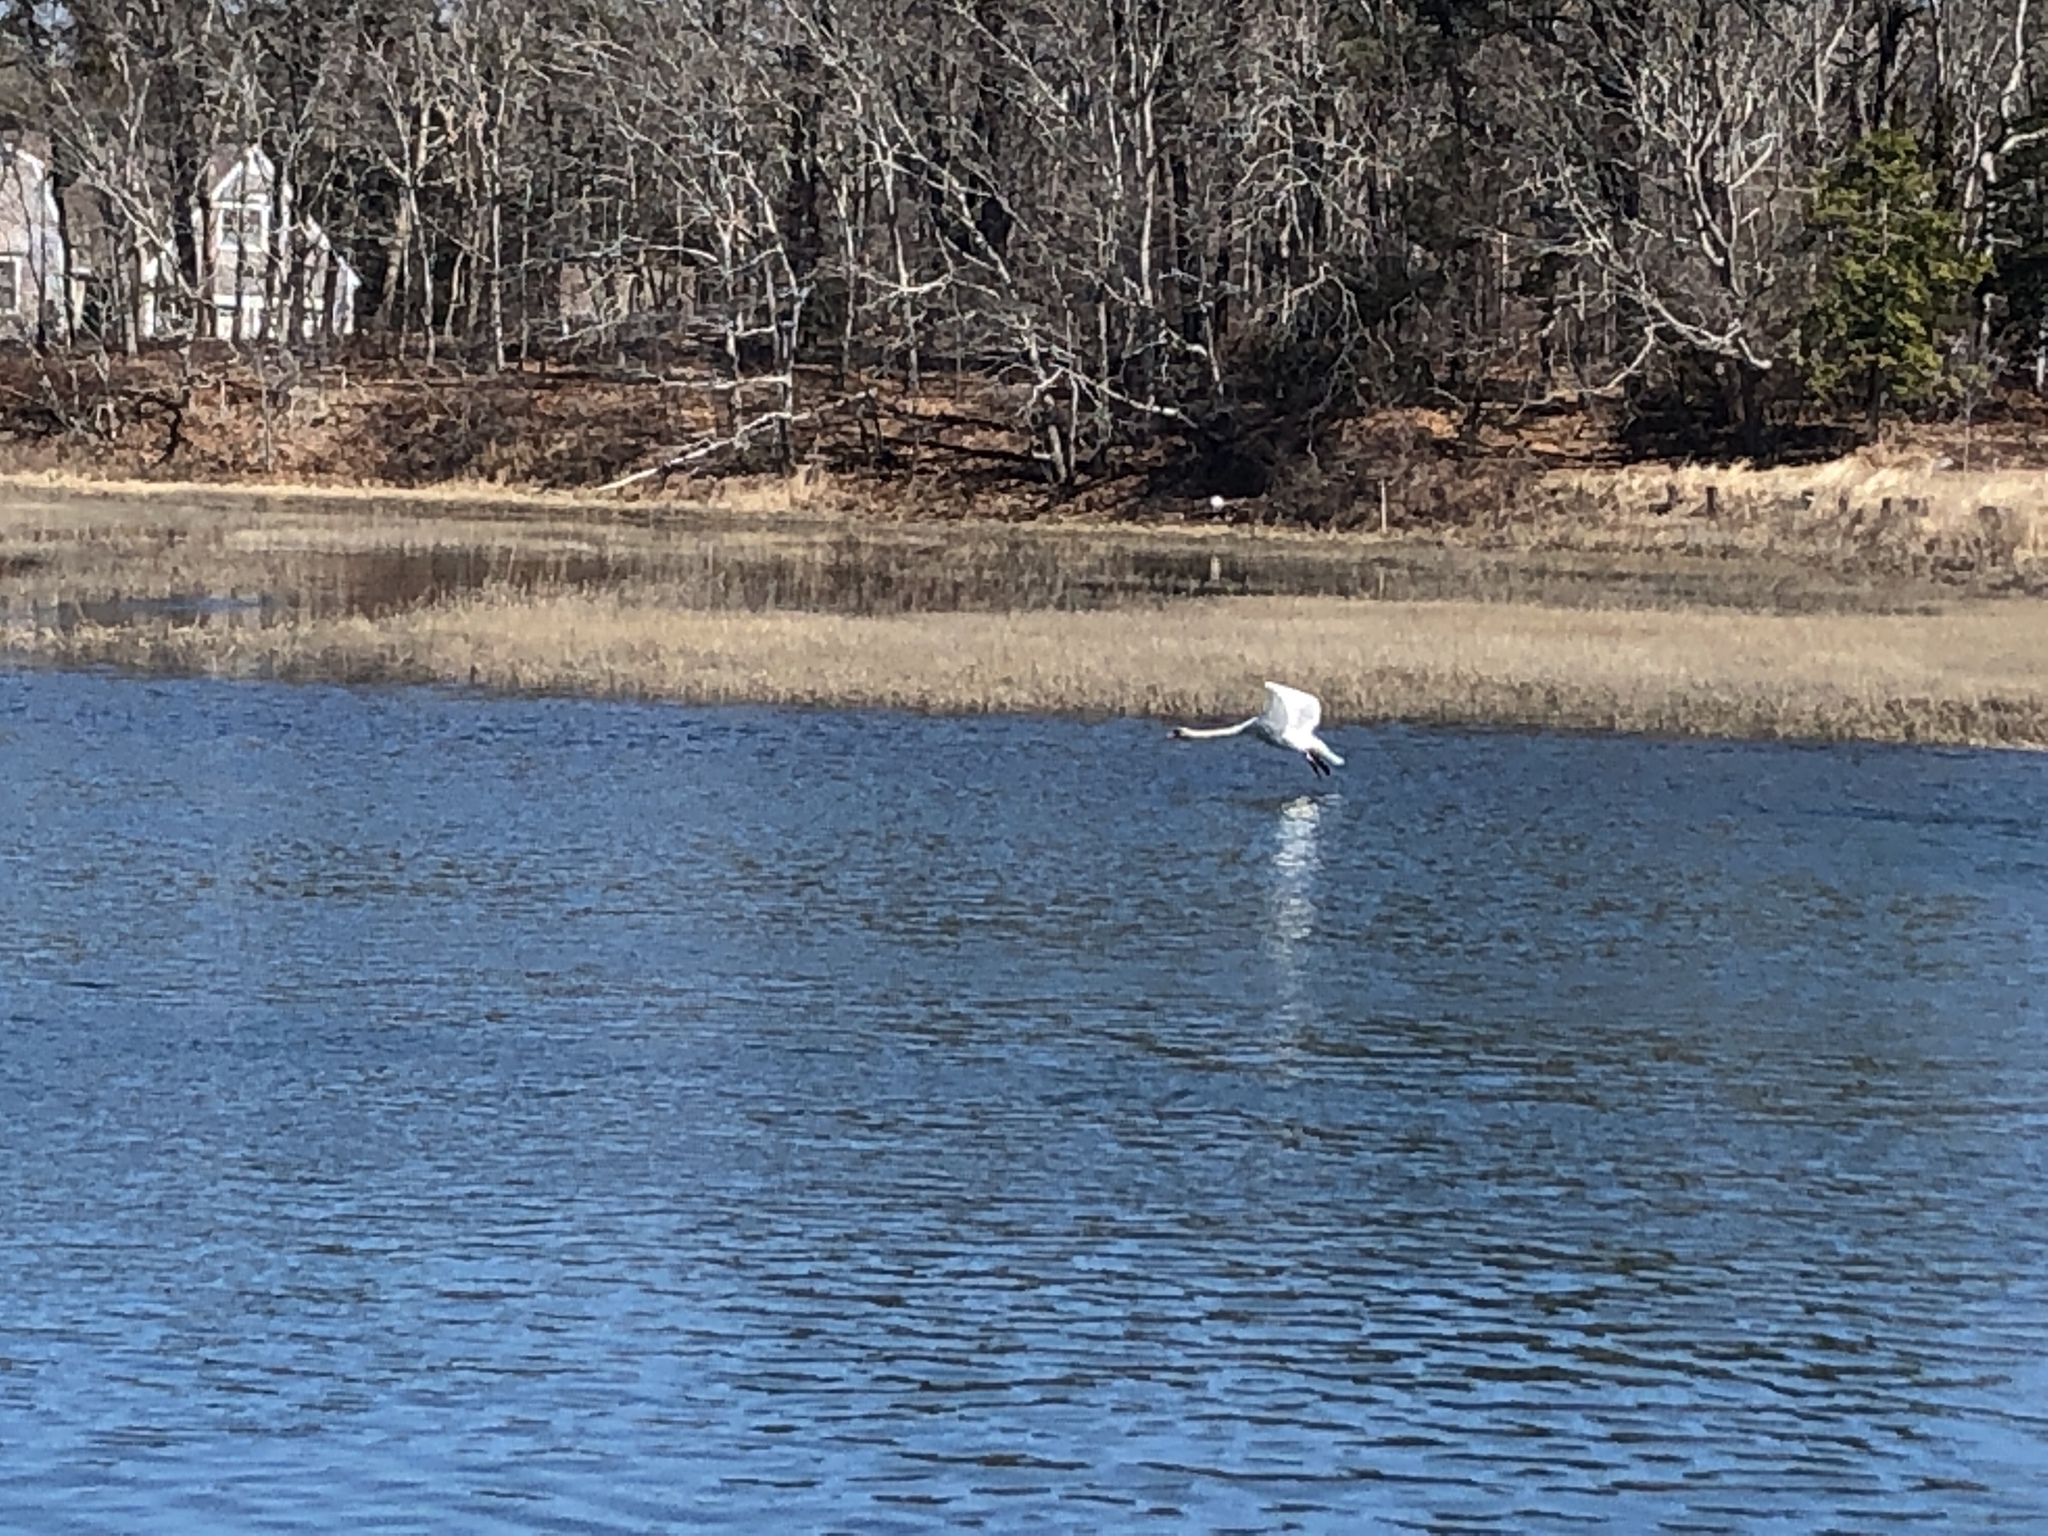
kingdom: Animalia
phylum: Chordata
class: Aves
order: Anseriformes
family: Anatidae
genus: Cygnus
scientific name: Cygnus olor
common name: Mute swan
